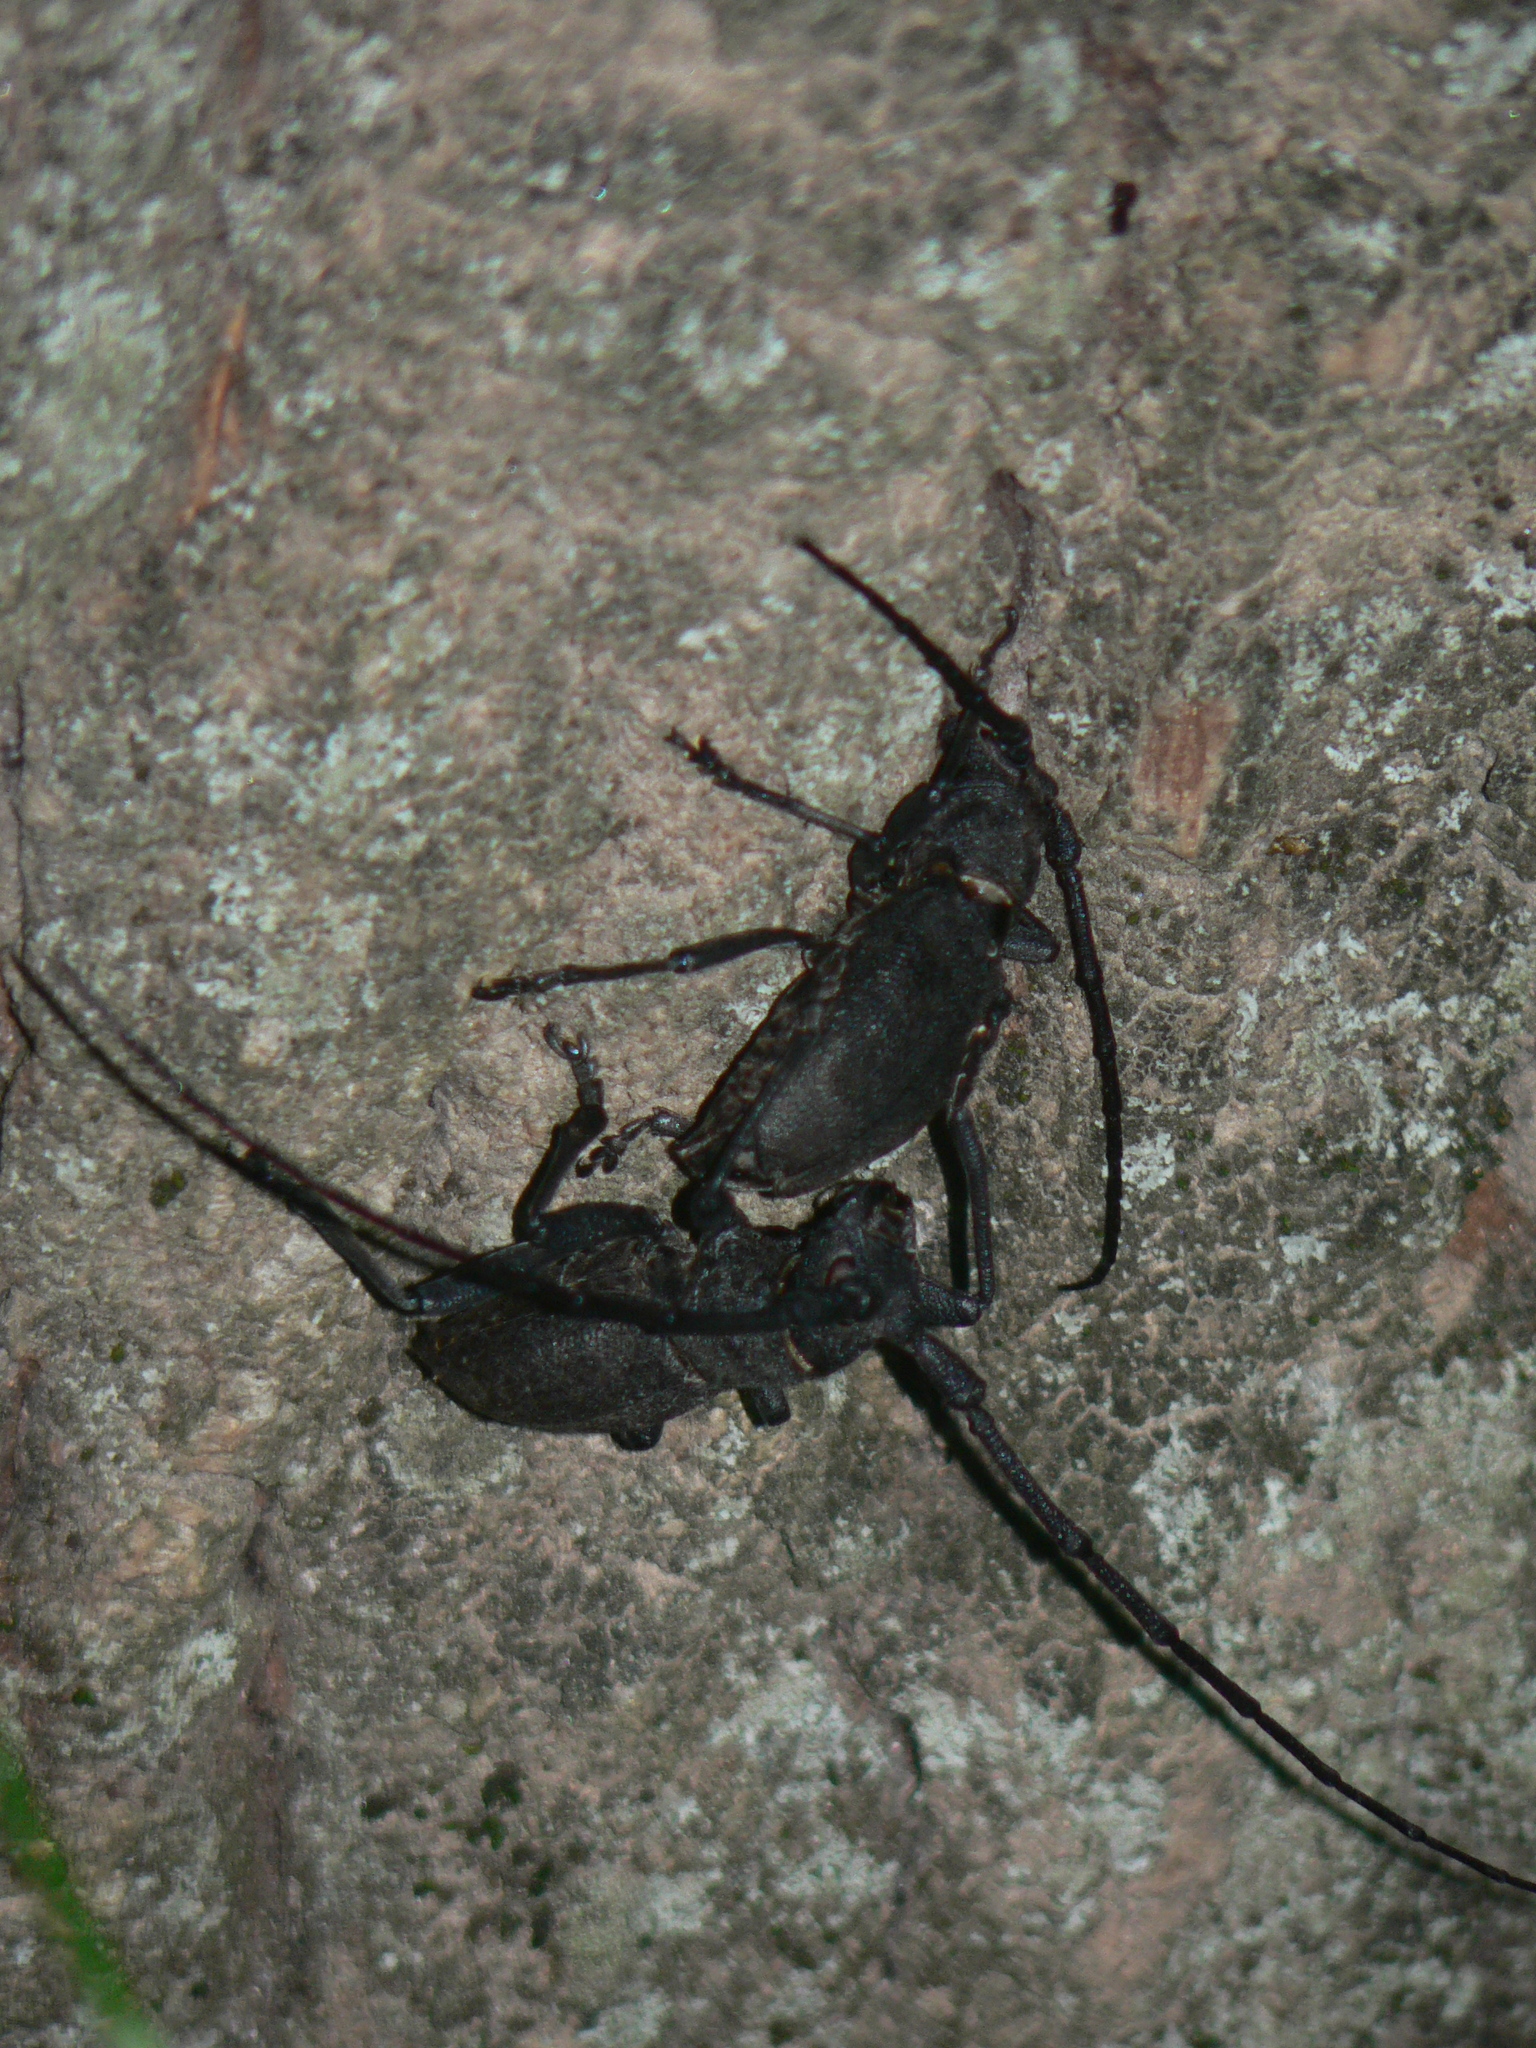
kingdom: Animalia
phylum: Arthropoda
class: Insecta
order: Coleoptera
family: Cerambycidae
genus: Morimus
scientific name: Morimus asper
